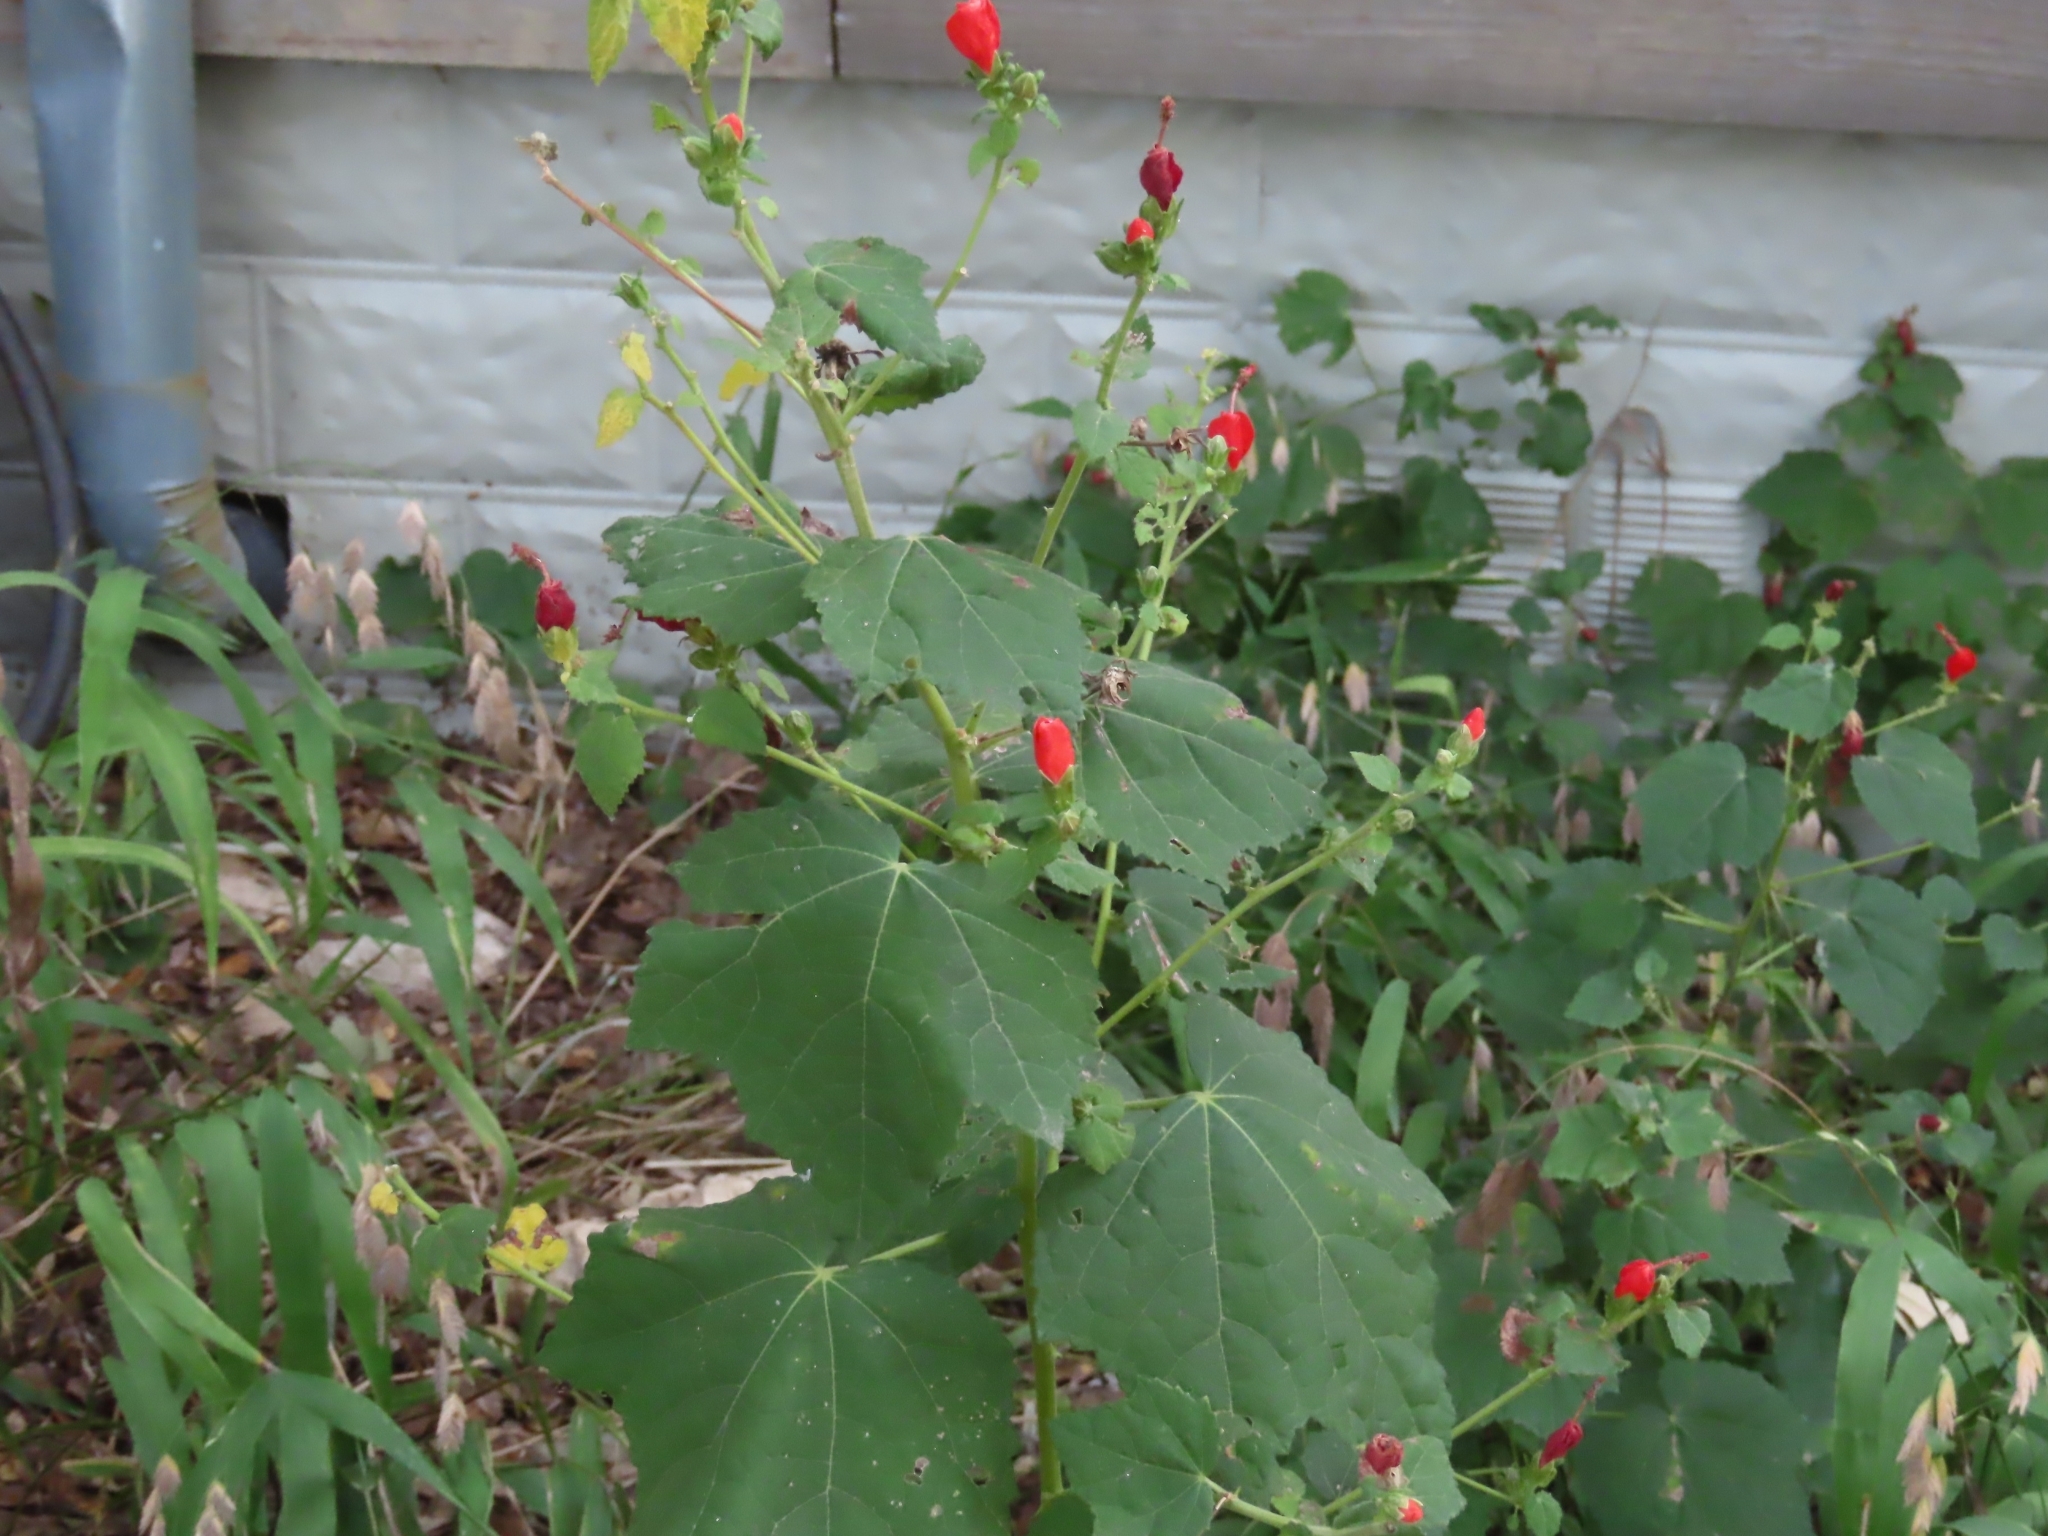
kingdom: Plantae
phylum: Tracheophyta
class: Magnoliopsida
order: Malvales
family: Malvaceae
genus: Malvaviscus
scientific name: Malvaviscus arboreus
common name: Wax mallow
